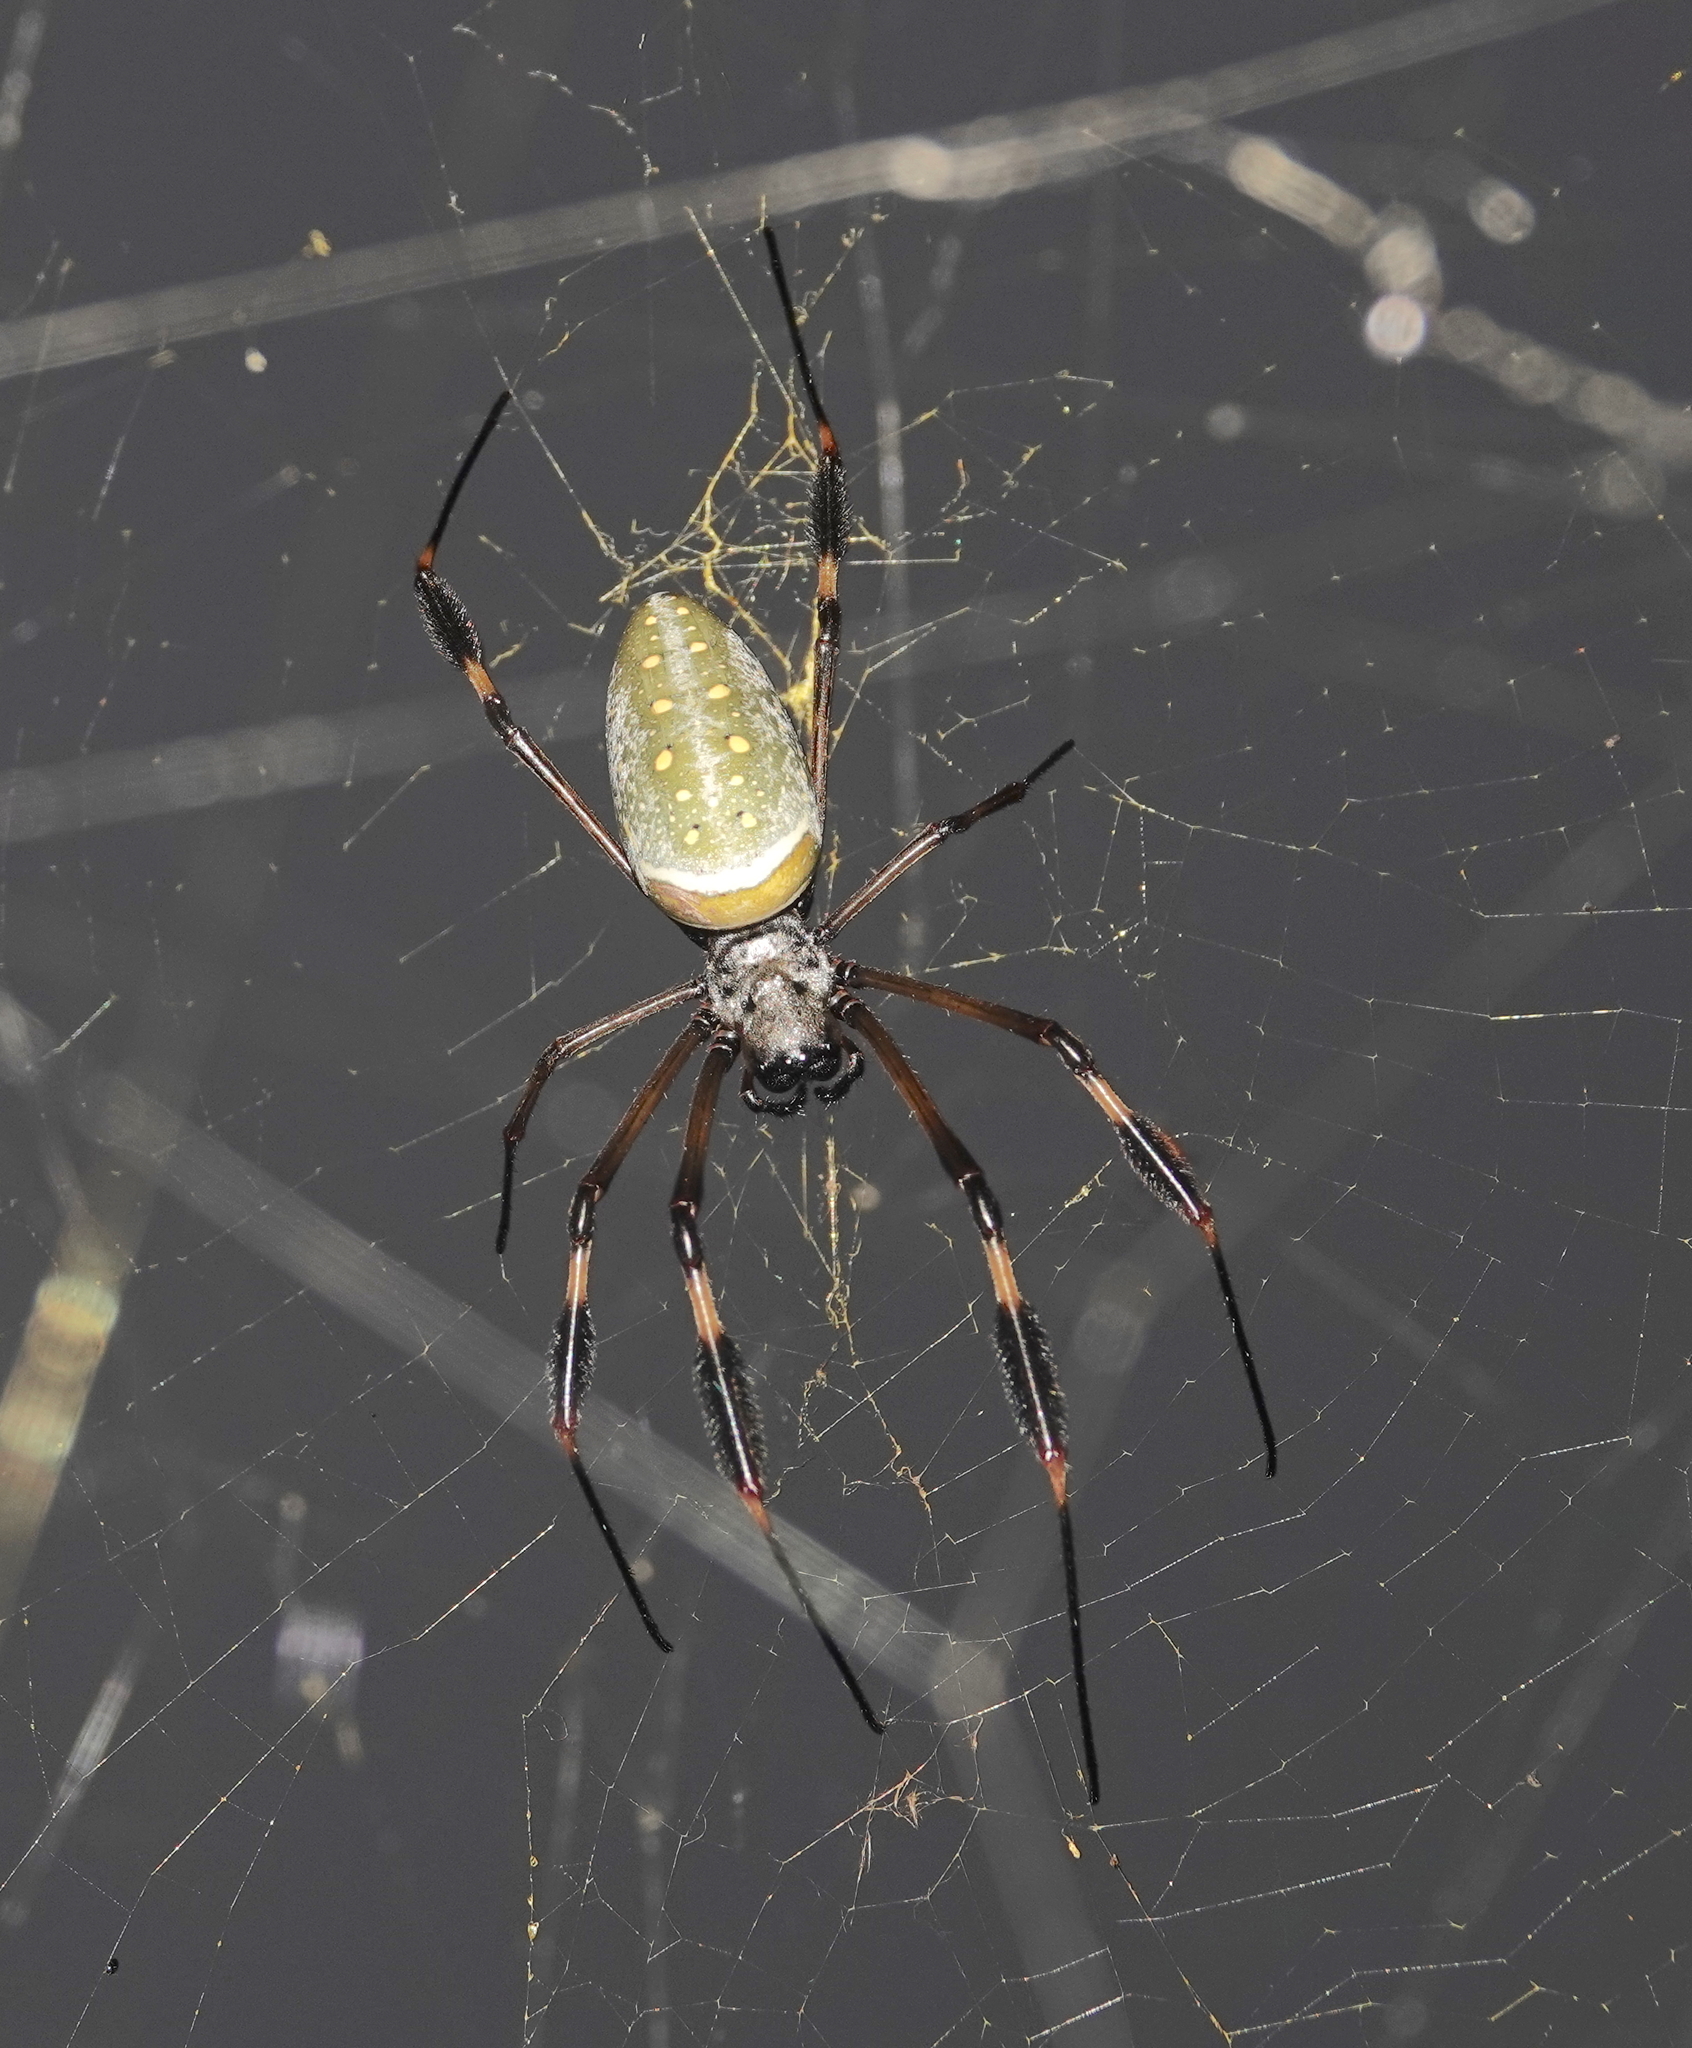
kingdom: Animalia
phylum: Arthropoda
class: Arachnida
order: Araneae
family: Araneidae
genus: Trichonephila
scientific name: Trichonephila clavipes
